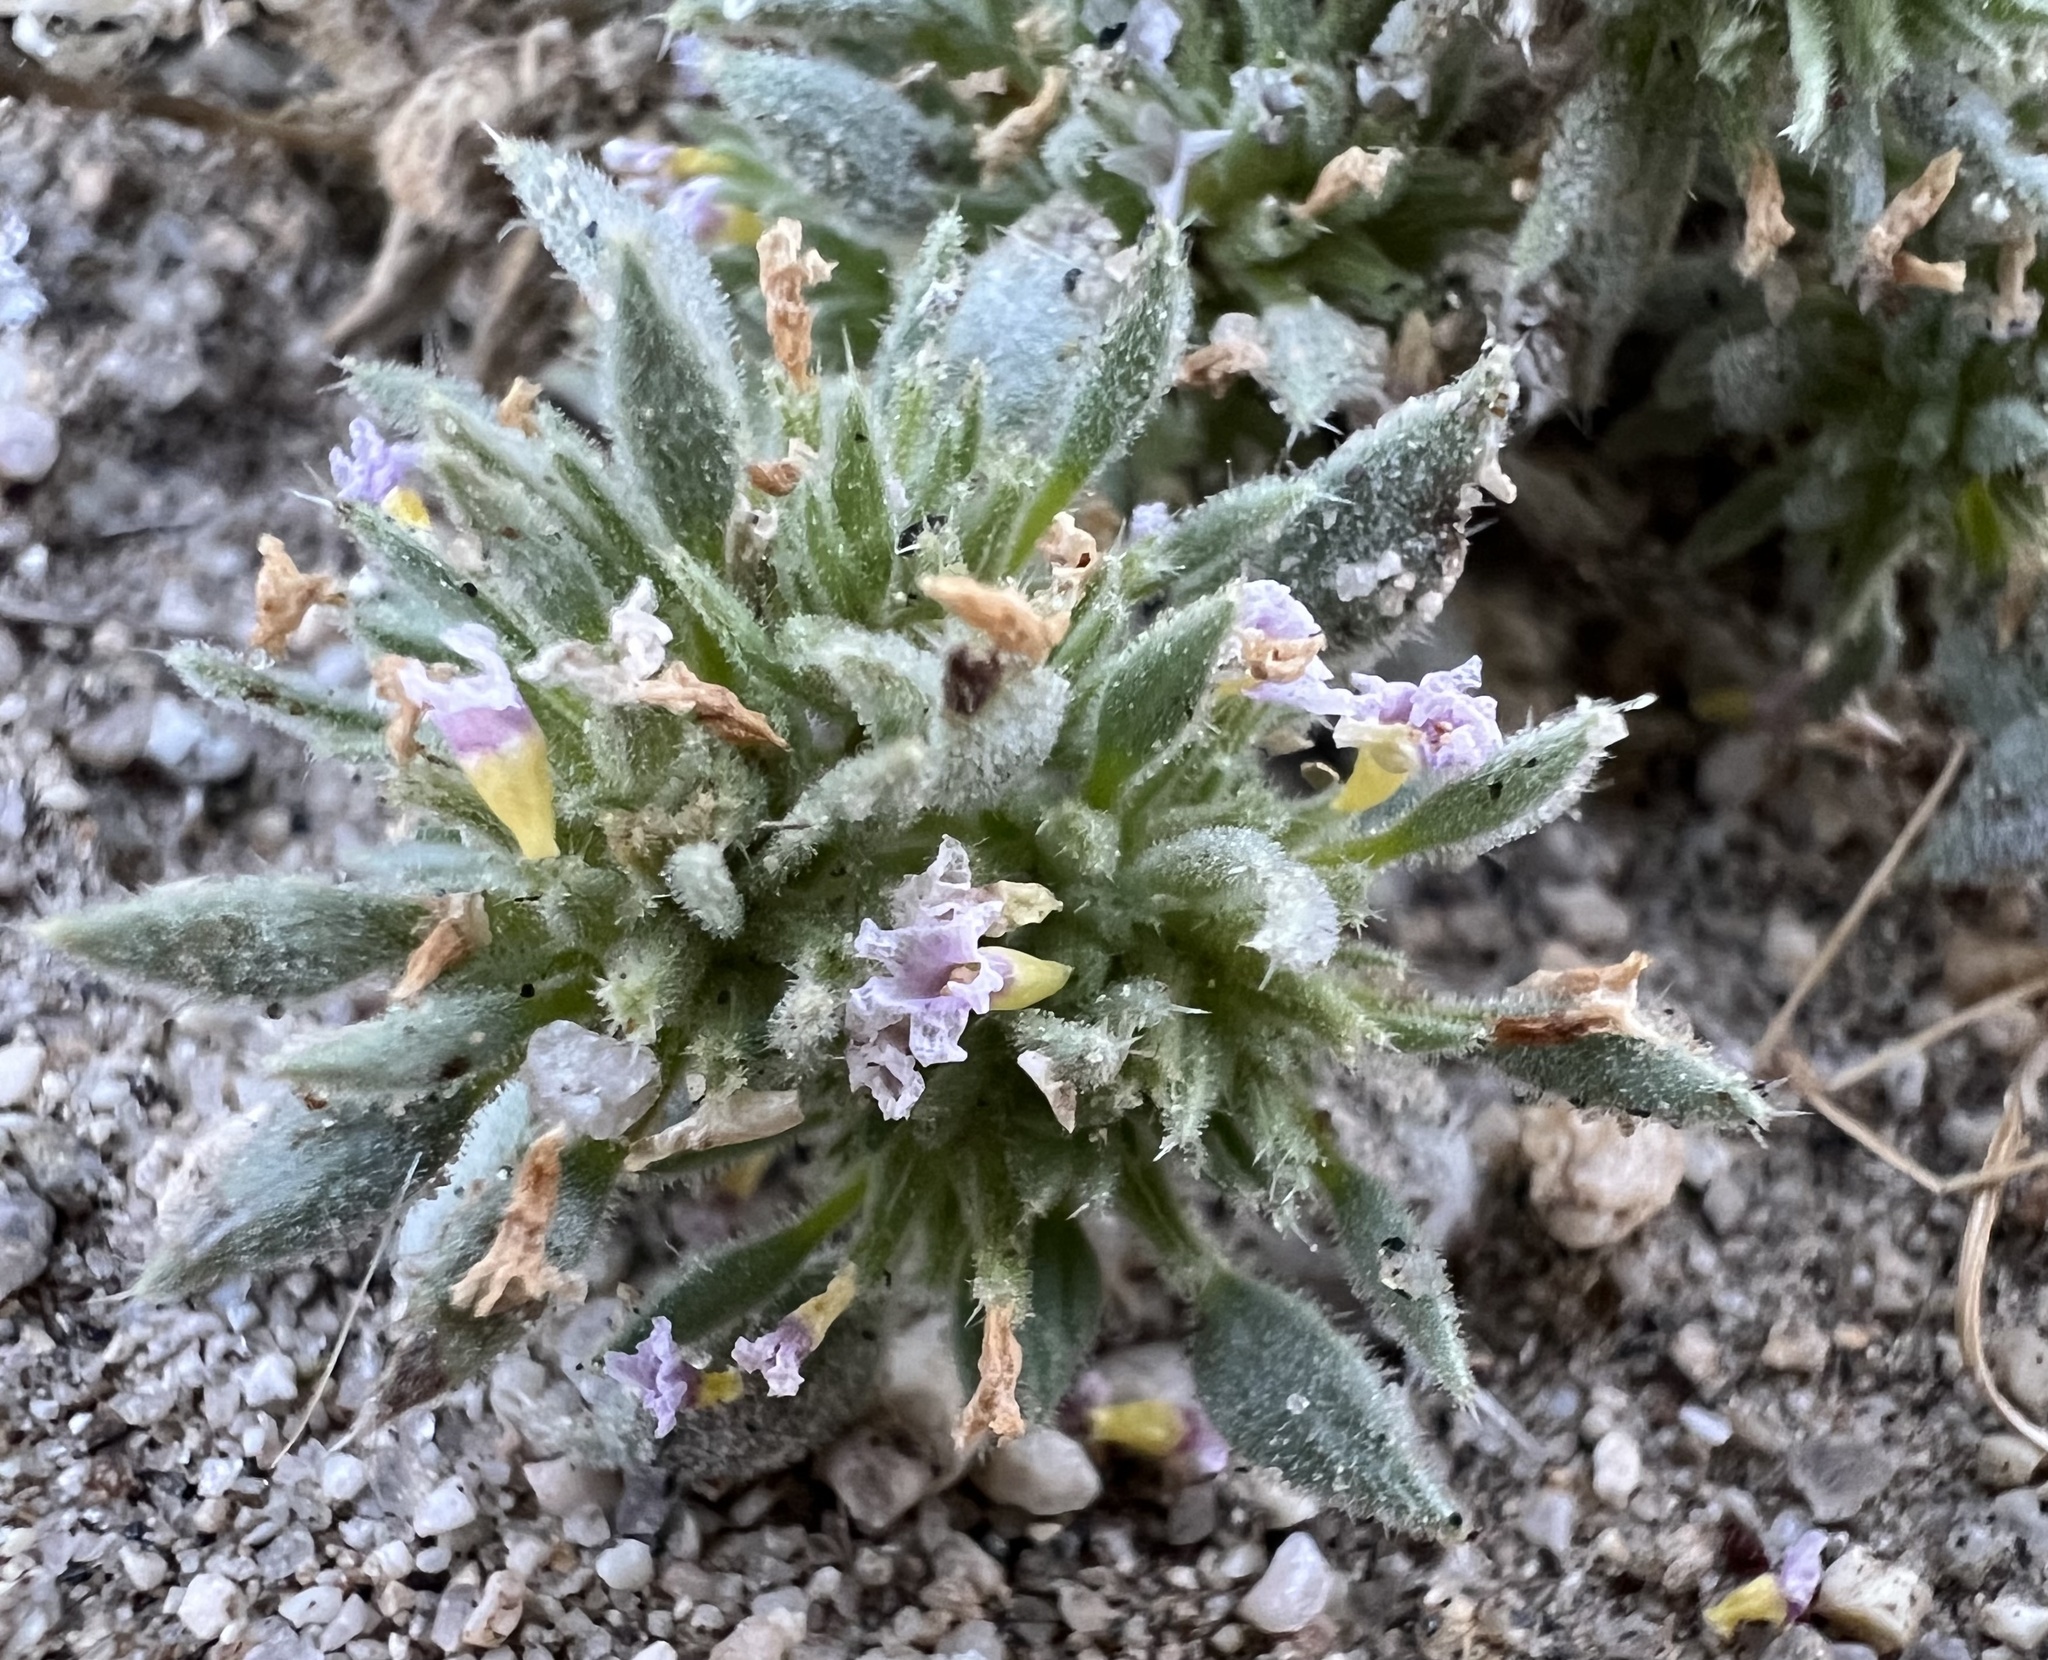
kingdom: Plantae
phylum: Tracheophyta
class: Magnoliopsida
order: Boraginales
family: Ehretiaceae
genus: Tiquilia
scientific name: Tiquilia nuttallii
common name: Rosette tiquilia
